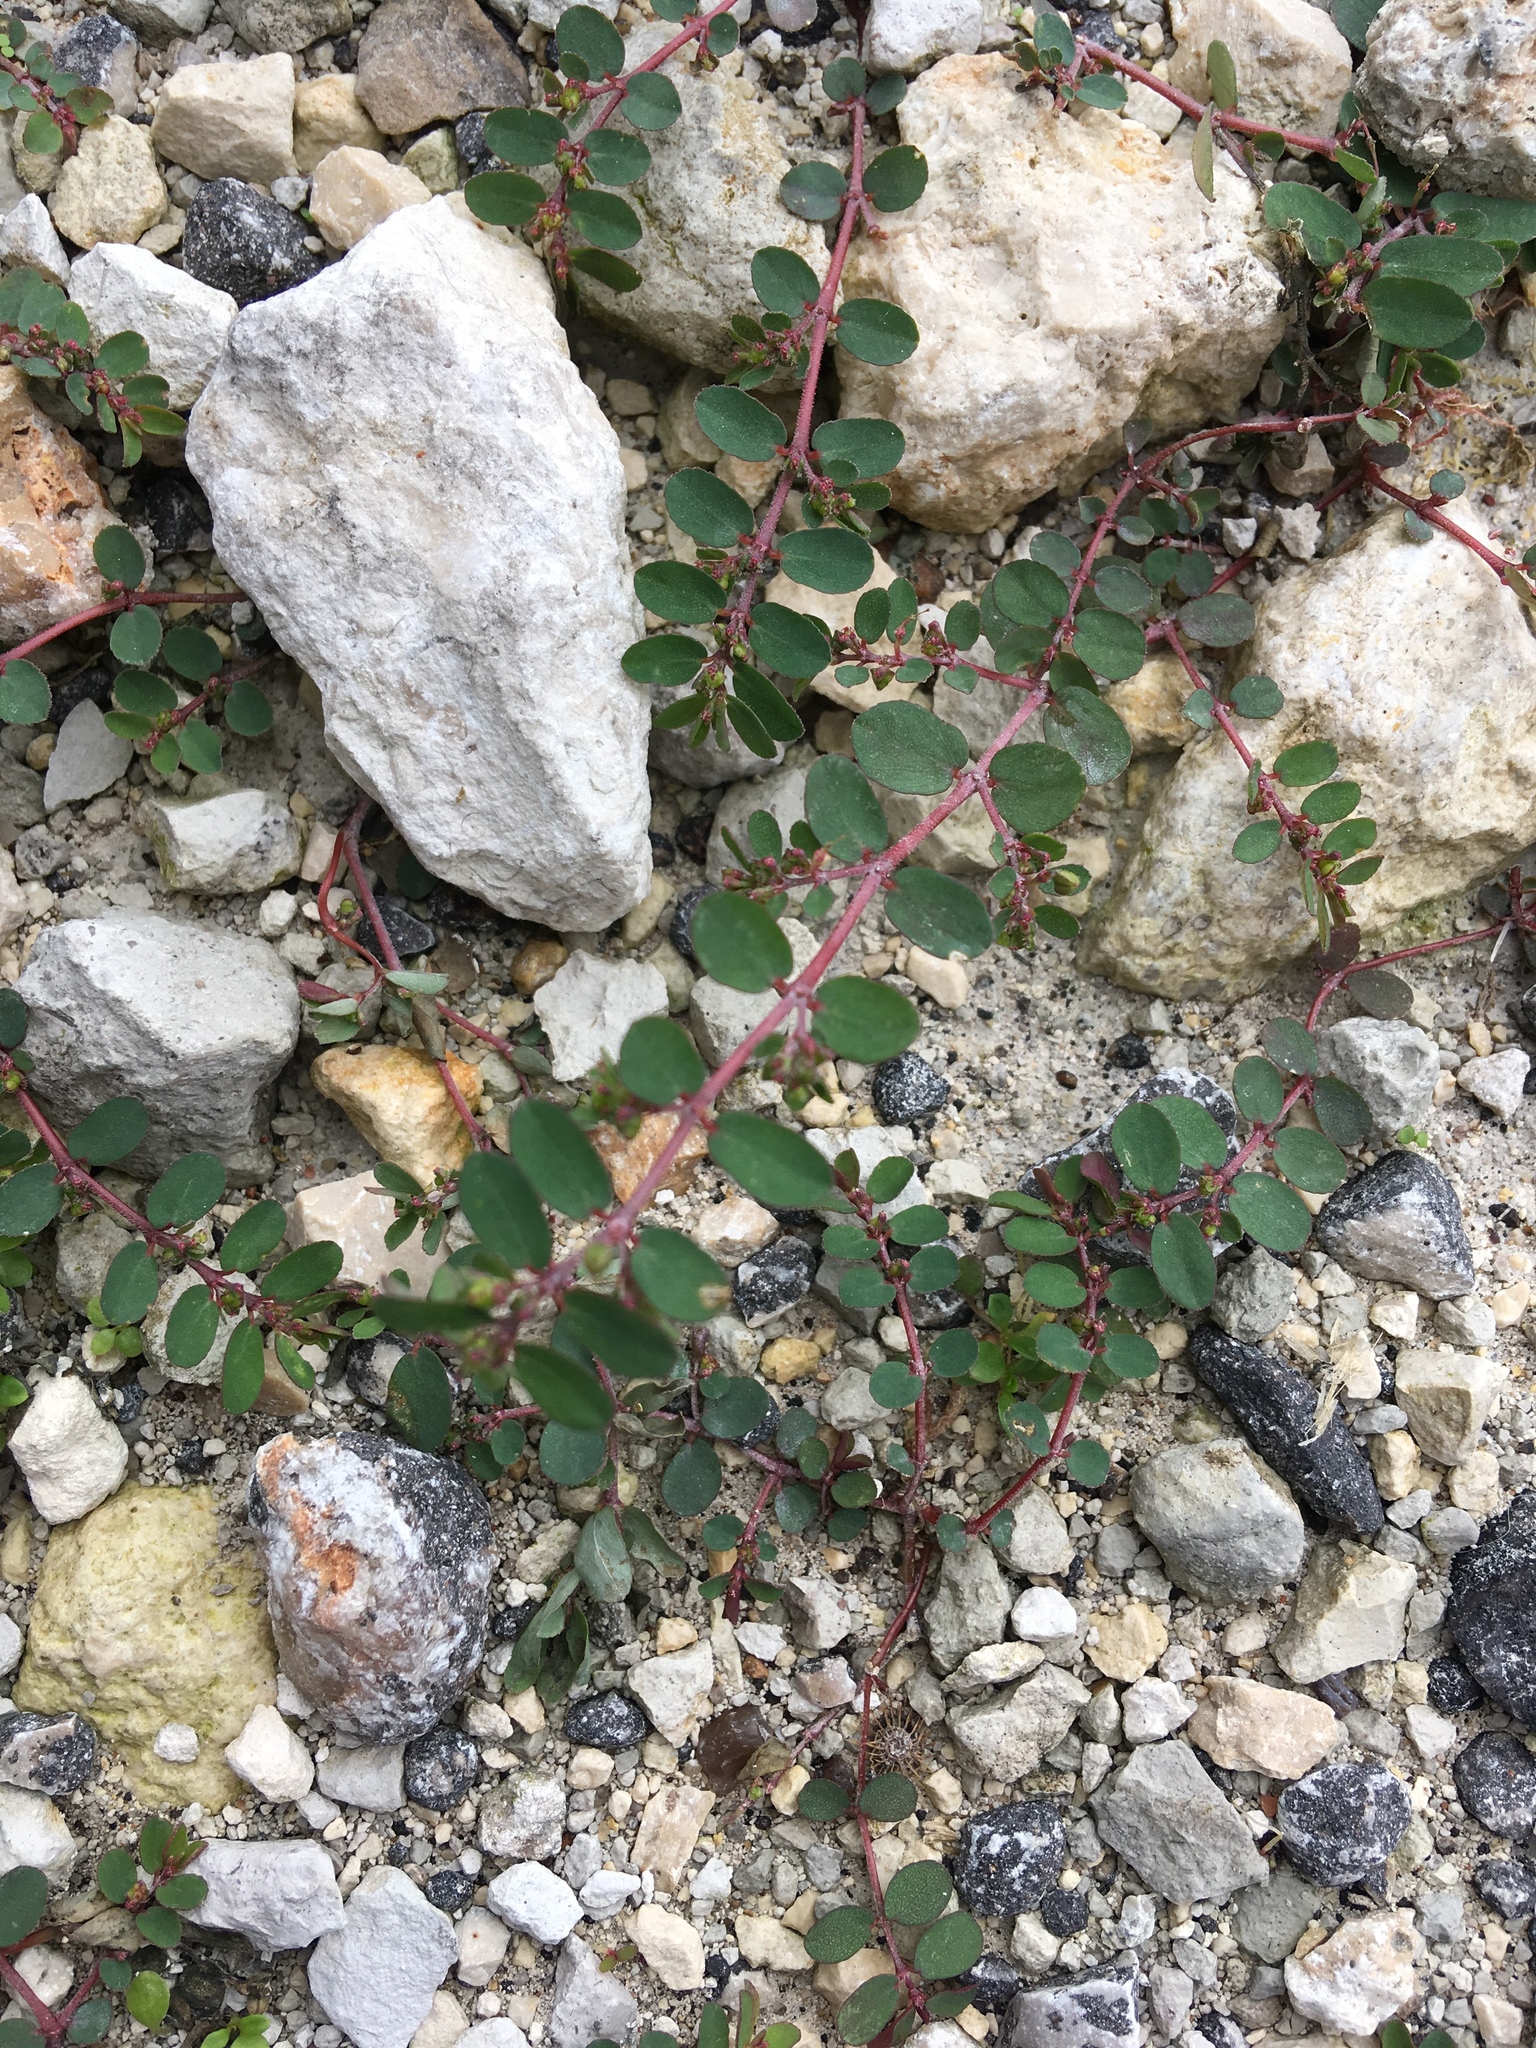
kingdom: Plantae
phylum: Tracheophyta
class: Magnoliopsida
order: Malpighiales
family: Euphorbiaceae
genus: Euphorbia
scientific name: Euphorbia prostrata
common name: Prostrate sandmat
